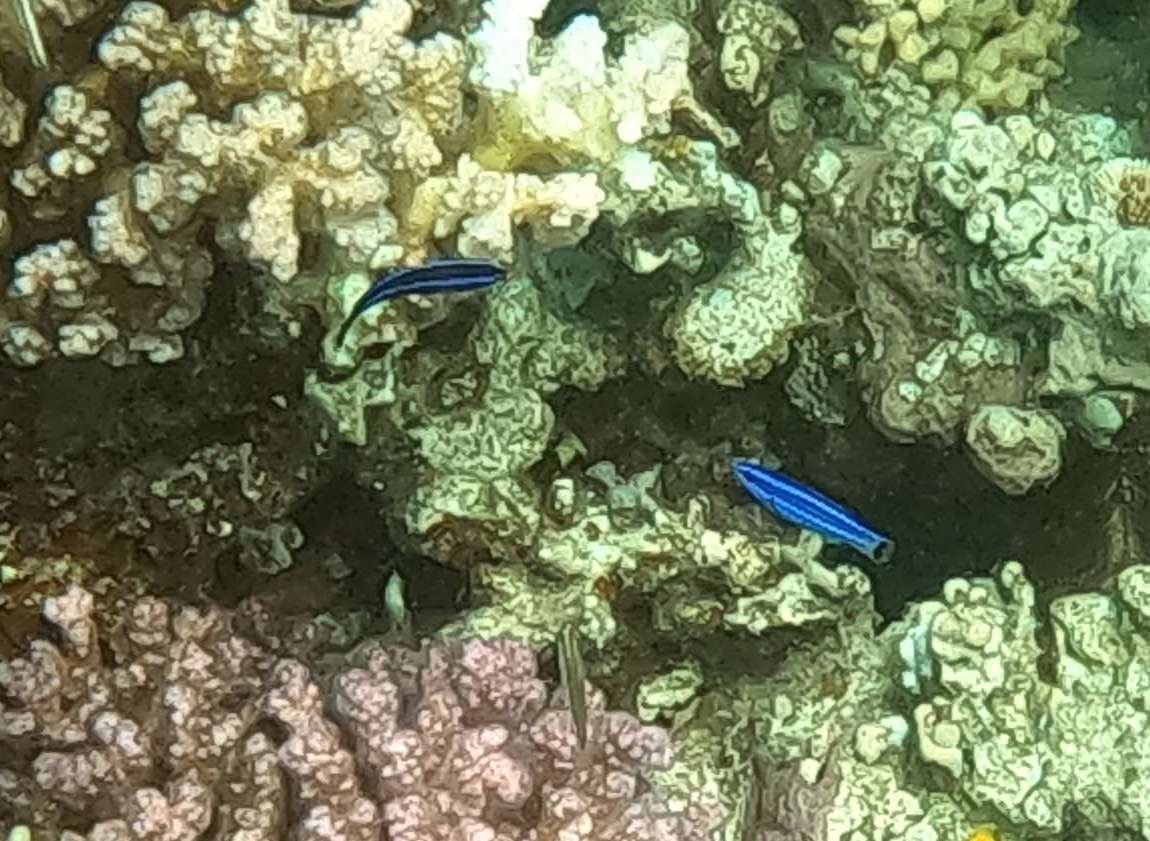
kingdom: Animalia
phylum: Chordata
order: Perciformes
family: Labridae
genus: Larabicus
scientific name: Larabicus quadrilineatus
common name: Fourline wrasse
